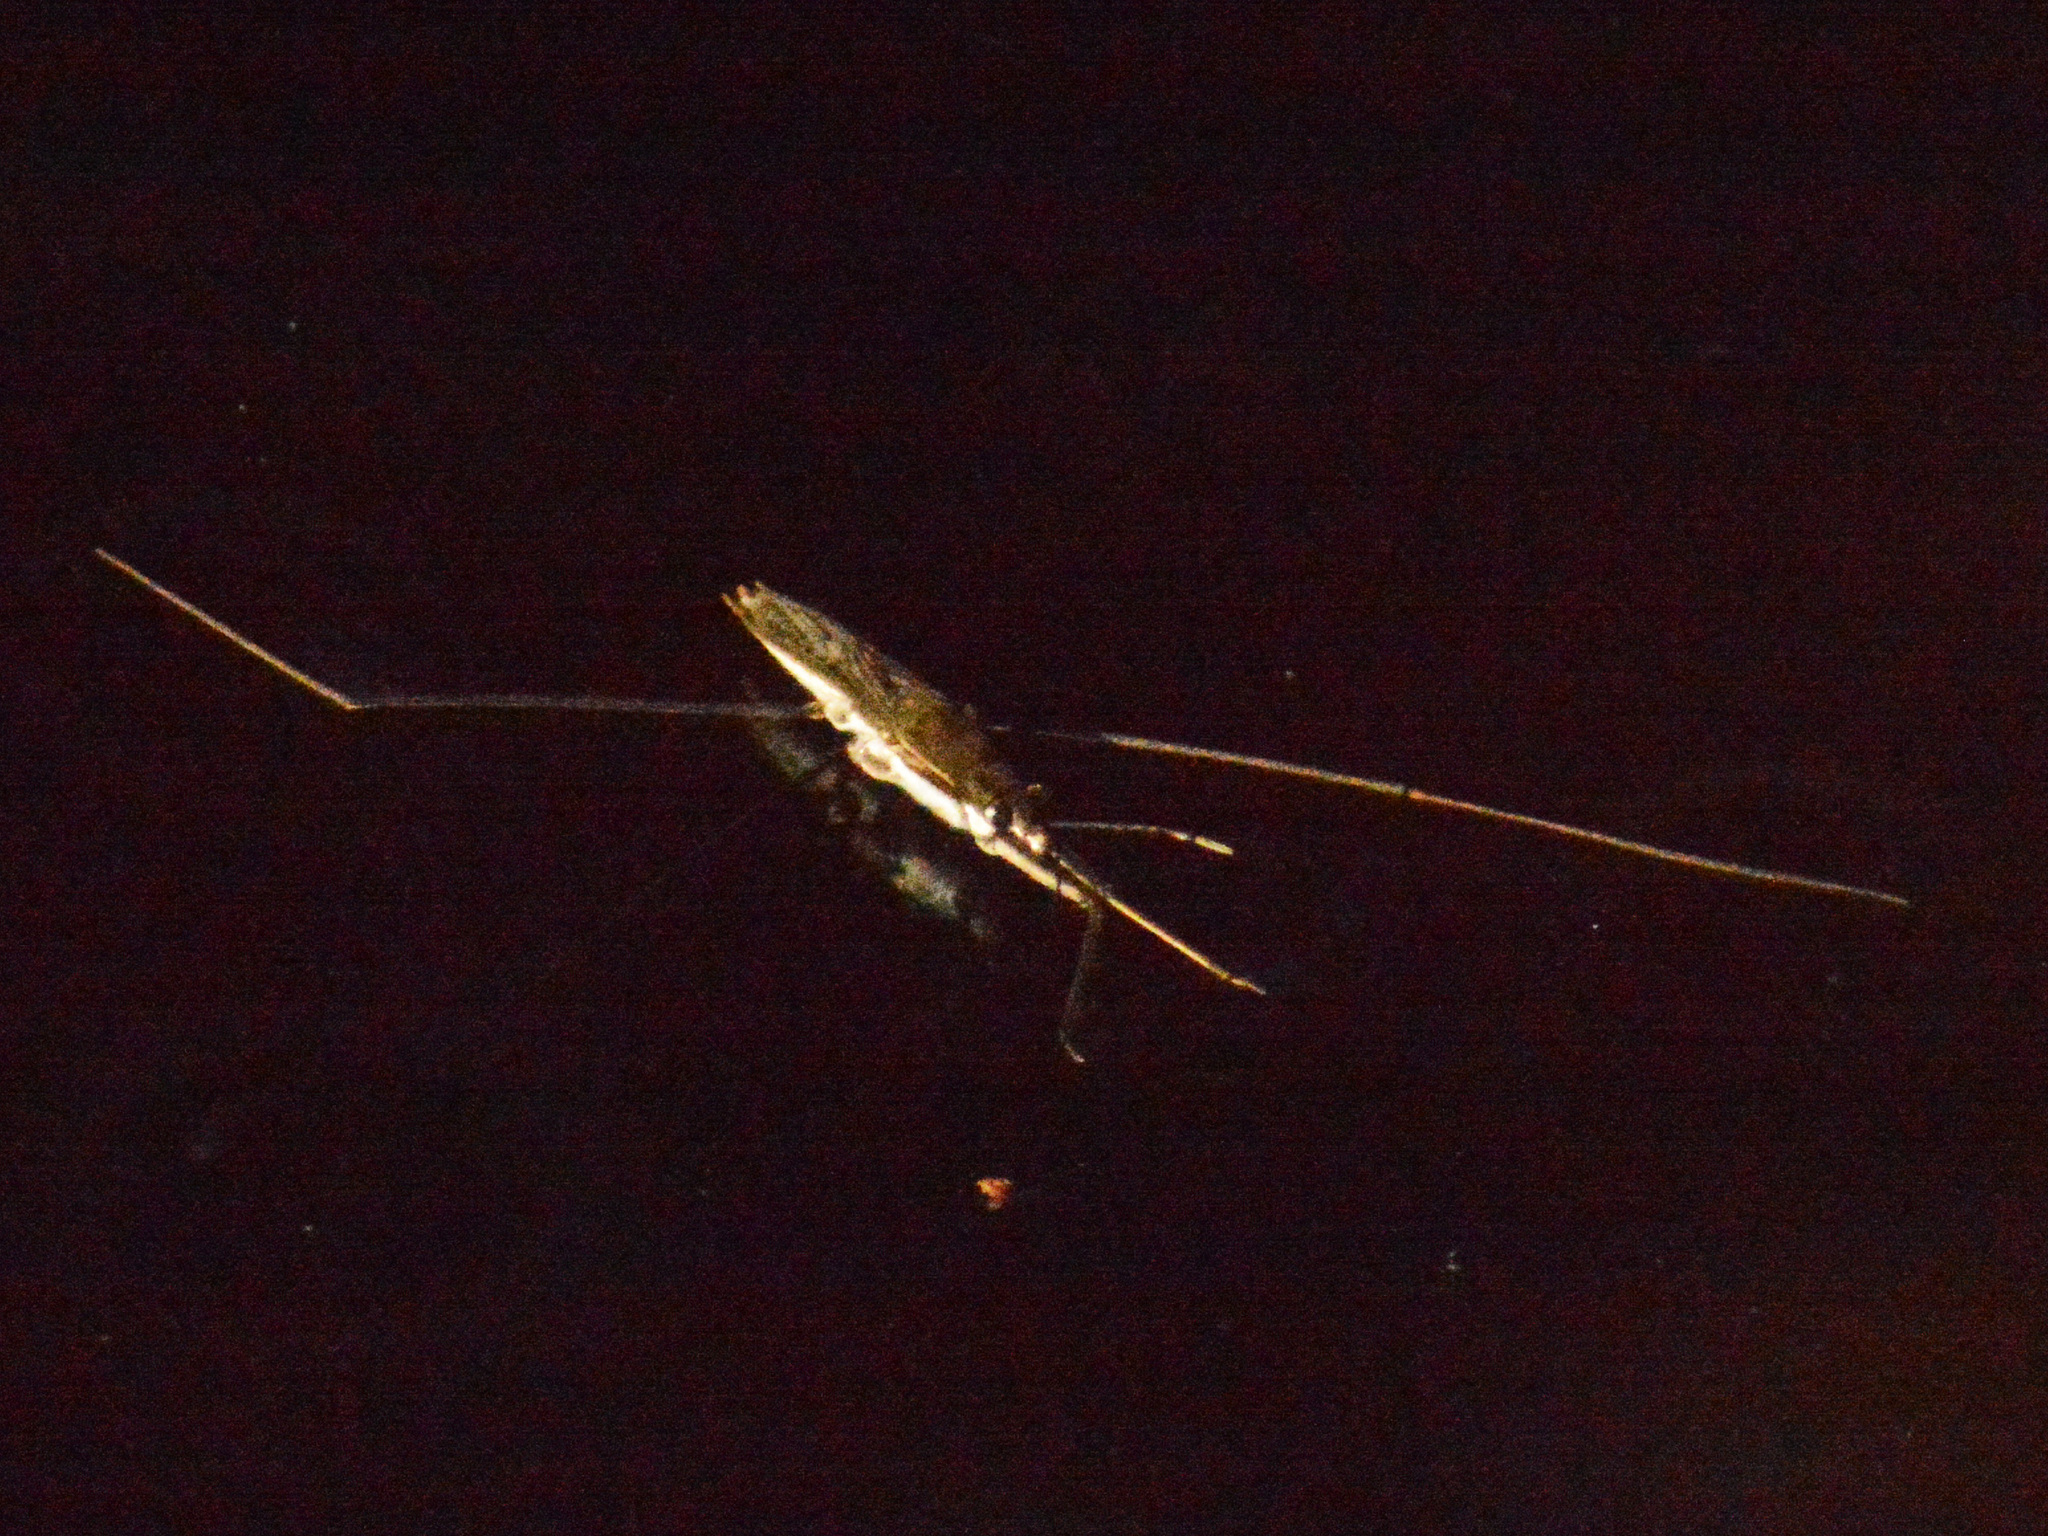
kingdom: Animalia
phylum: Arthropoda
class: Insecta
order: Hemiptera
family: Gerridae
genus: Aquarius
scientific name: Aquarius paludum
